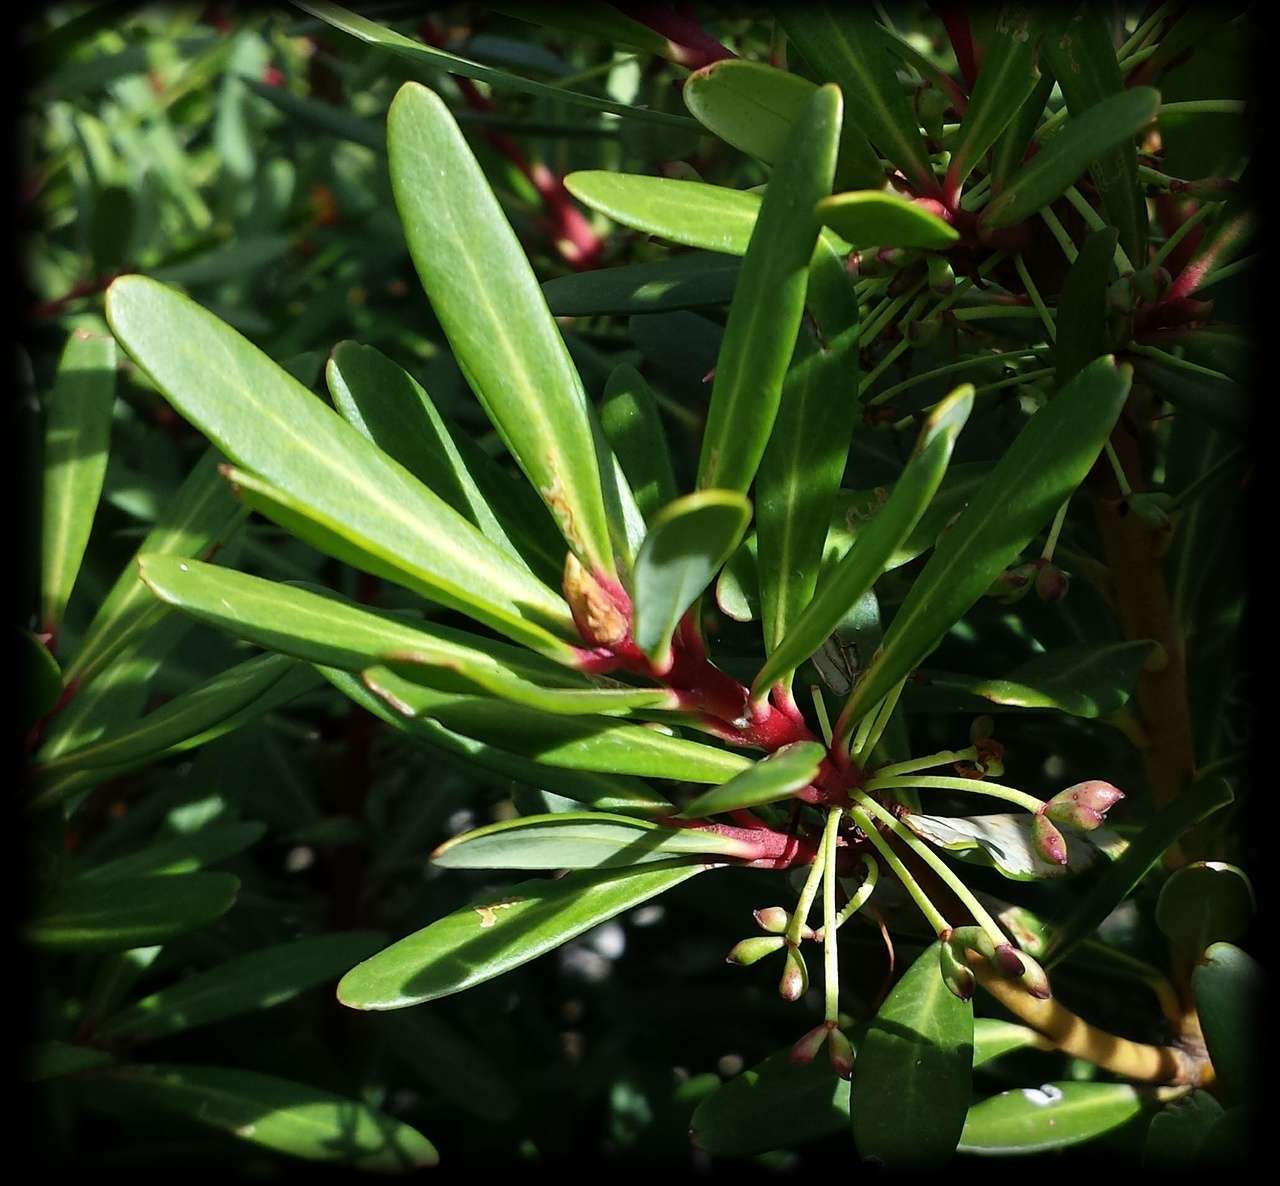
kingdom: Plantae
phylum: Tracheophyta
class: Magnoliopsida
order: Canellales
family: Winteraceae
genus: Drimys
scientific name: Drimys xerophila
